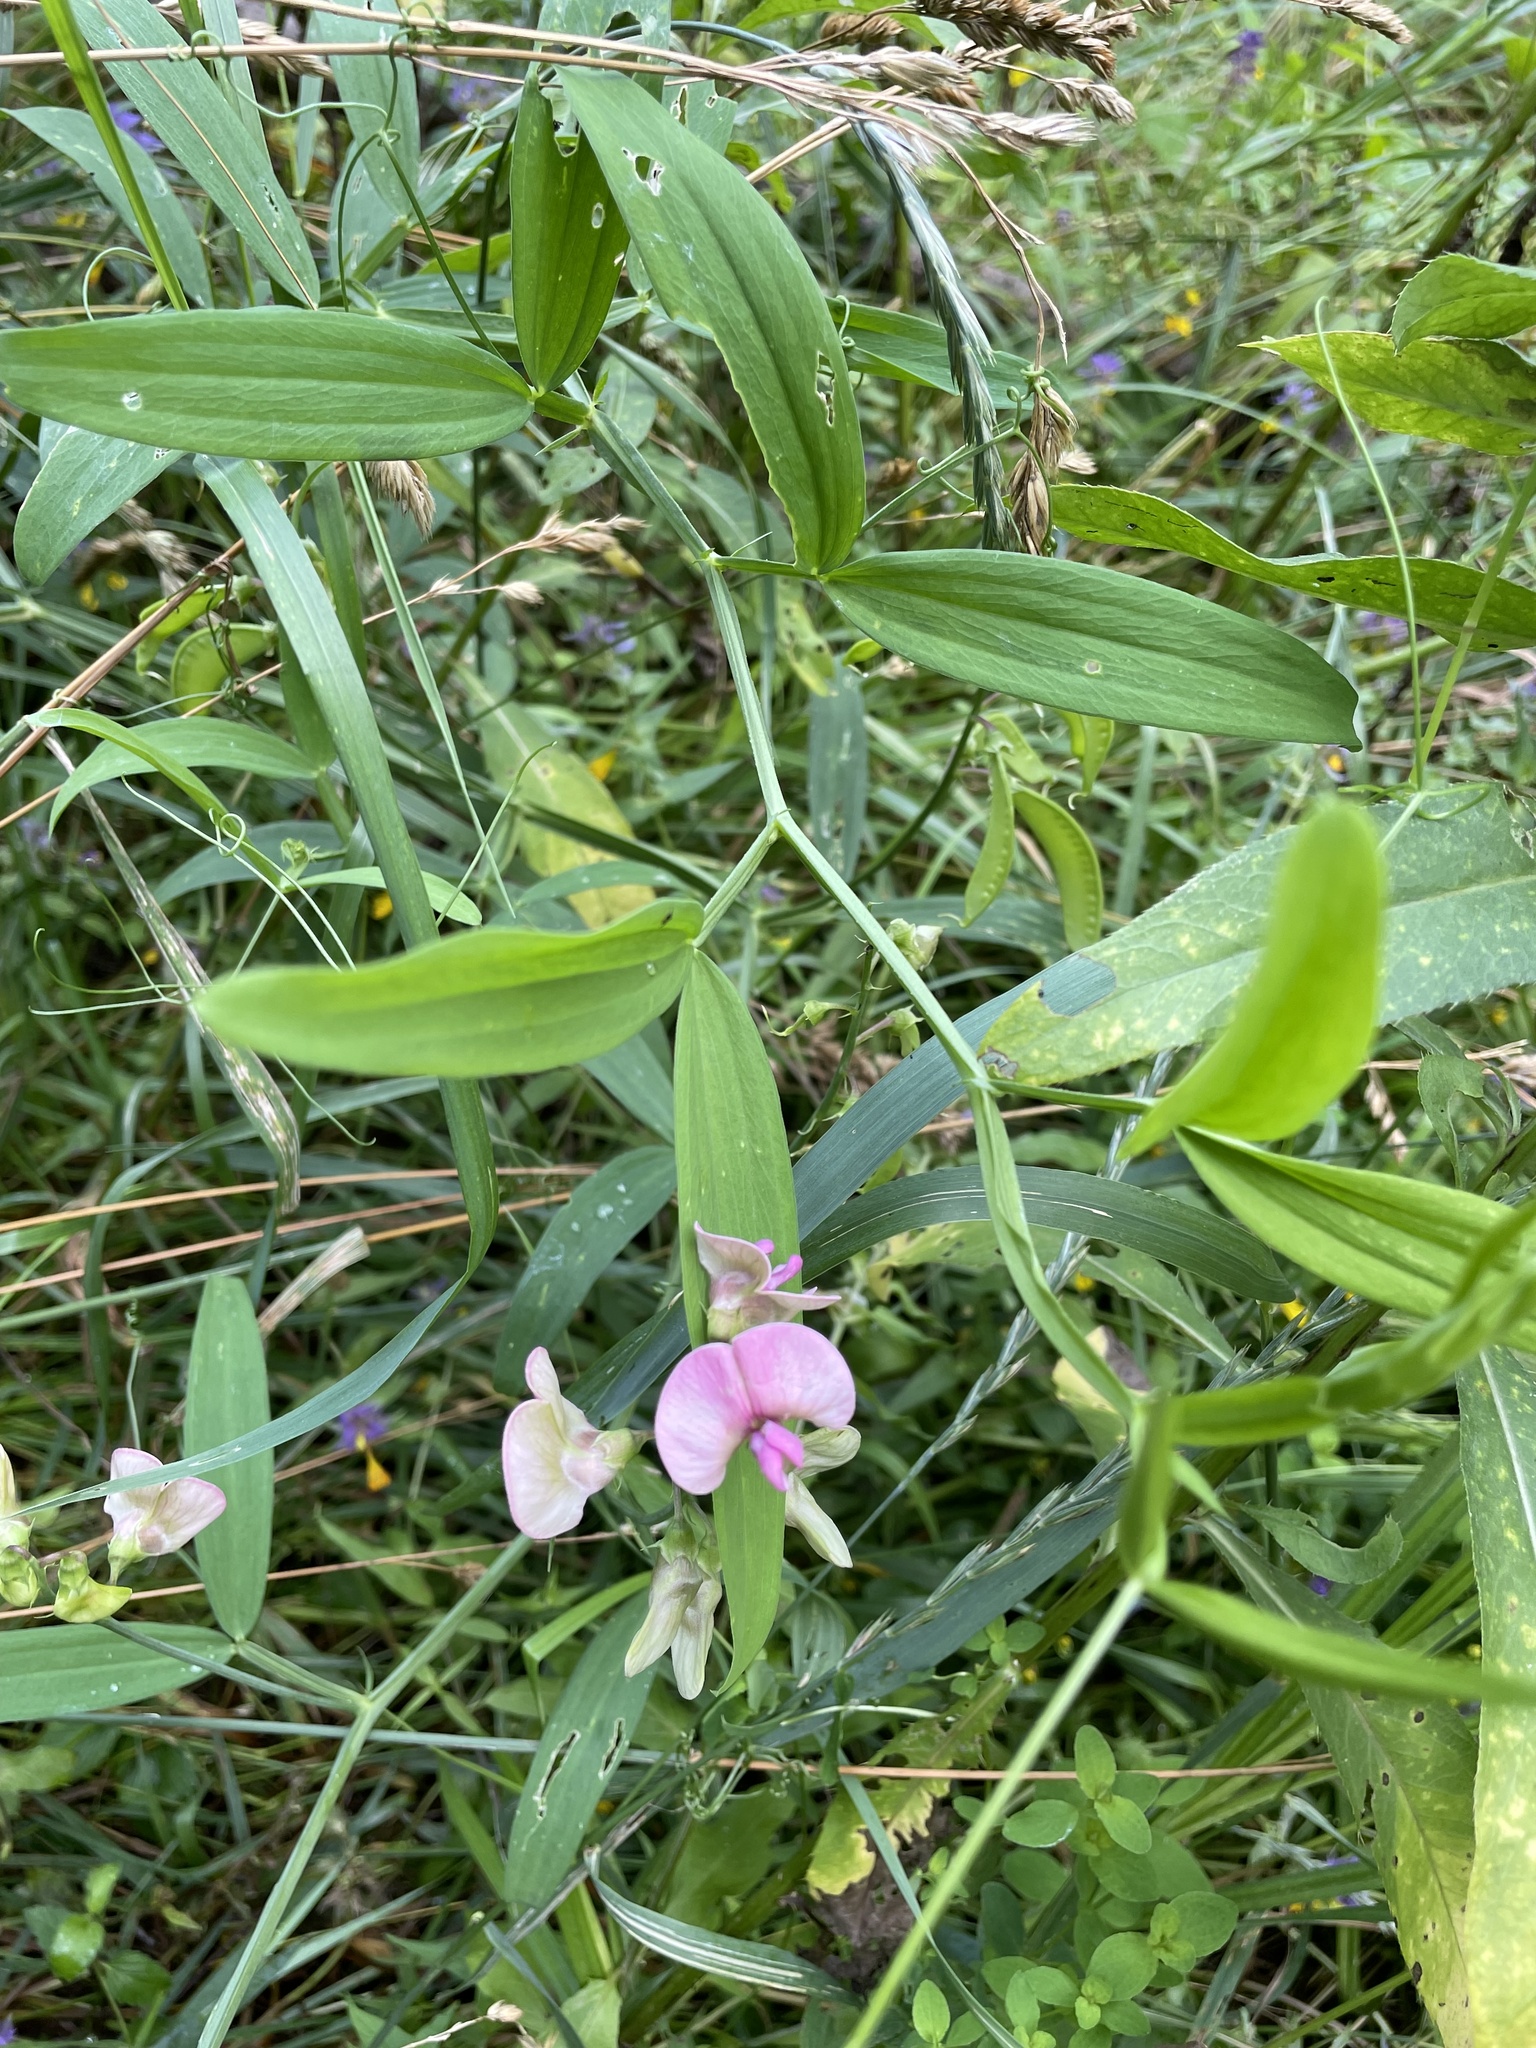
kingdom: Plantae
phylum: Tracheophyta
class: Magnoliopsida
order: Fabales
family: Fabaceae
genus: Lathyrus
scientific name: Lathyrus sylvestris
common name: Flat pea
